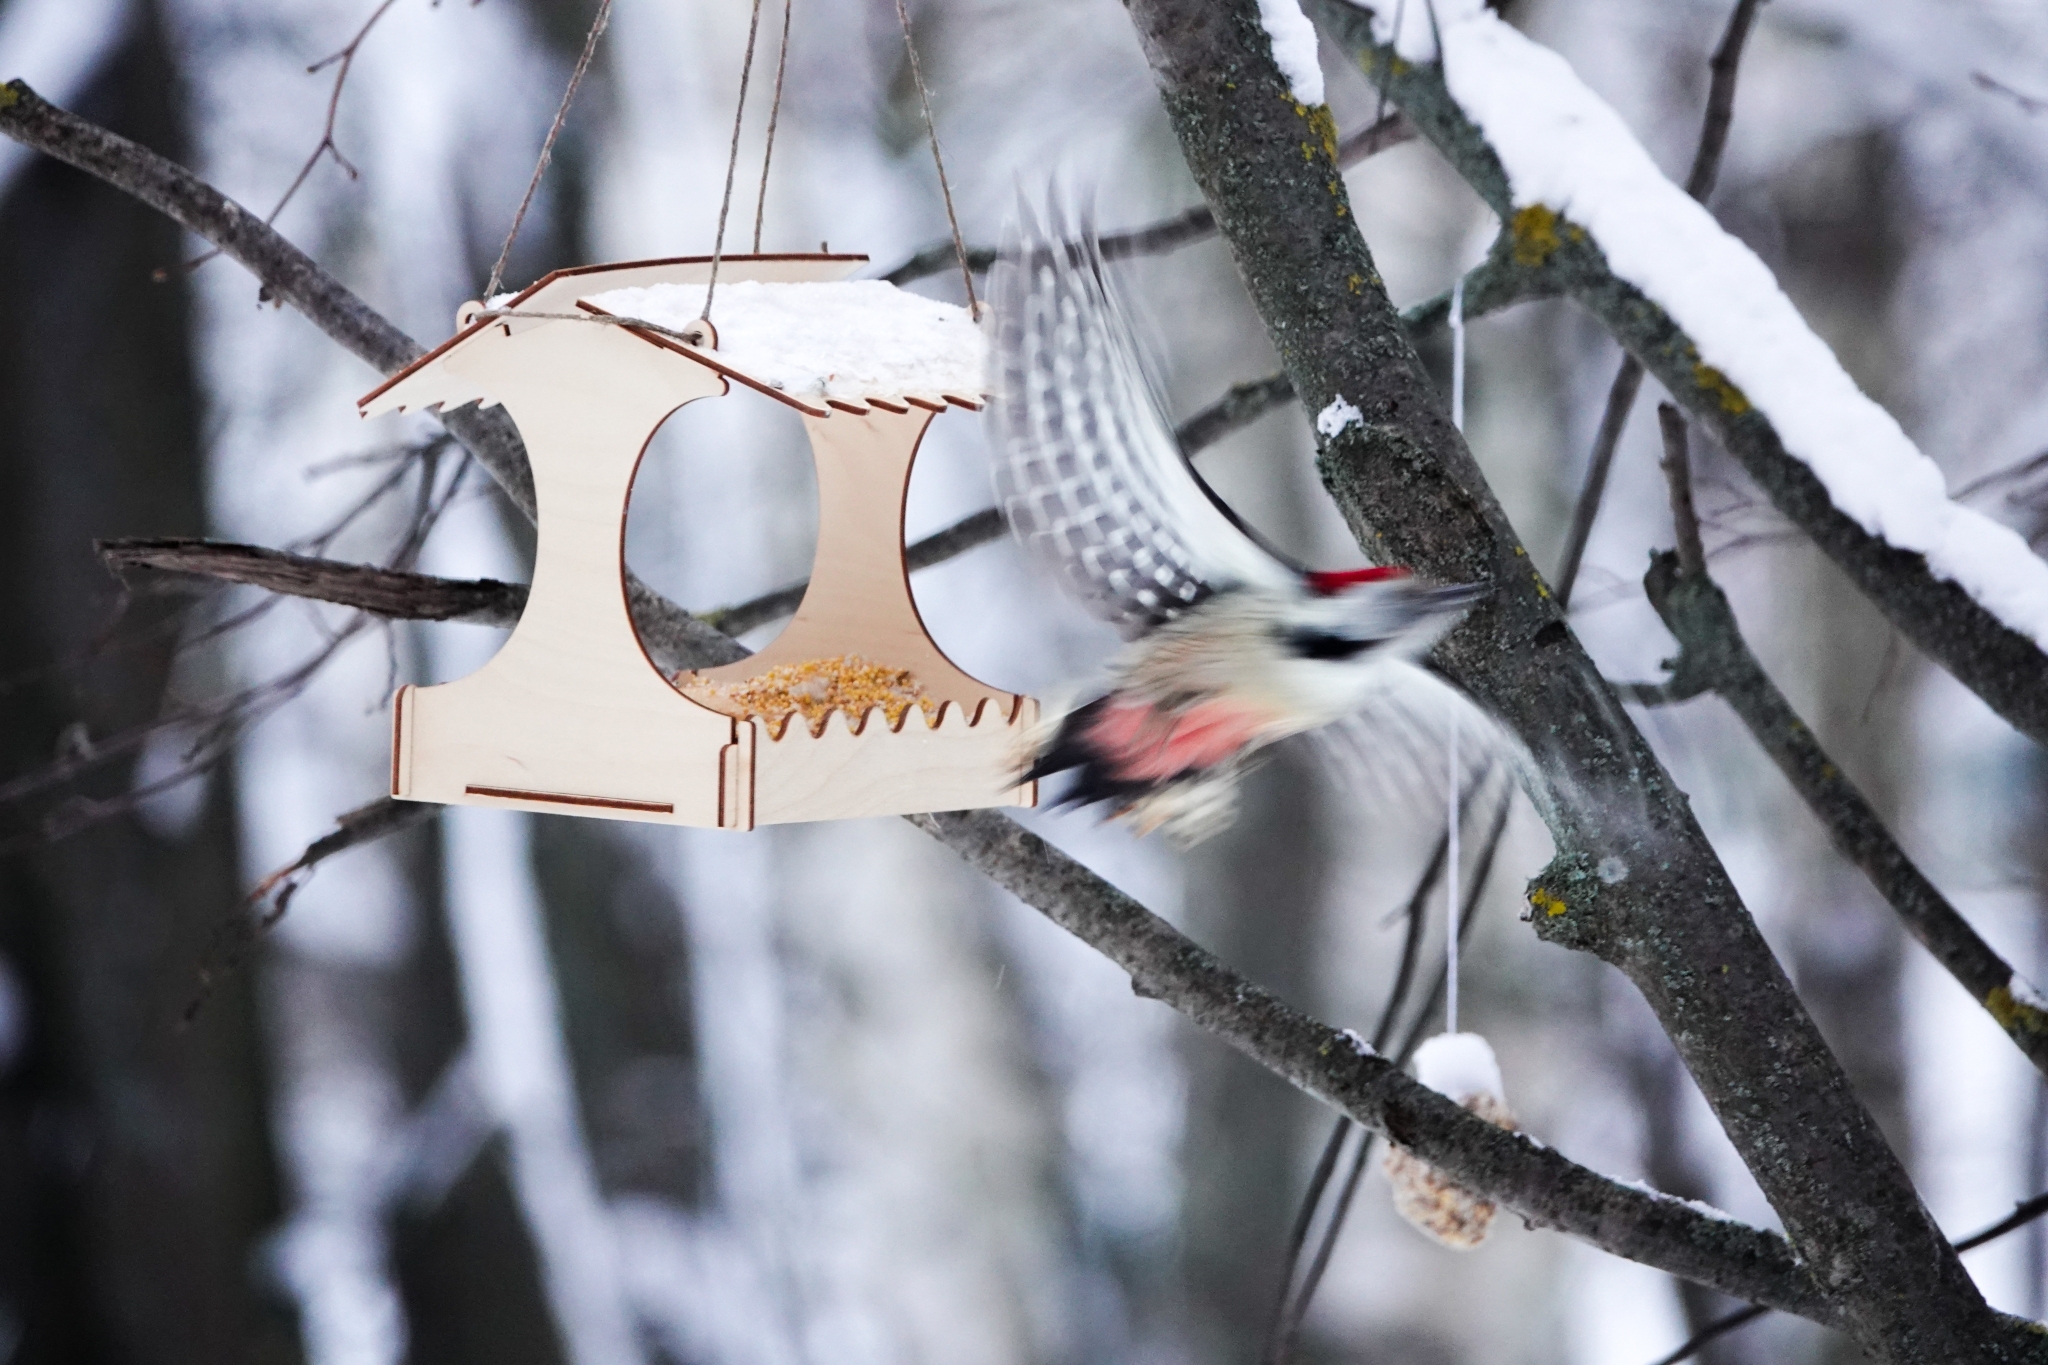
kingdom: Animalia
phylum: Chordata
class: Aves
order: Piciformes
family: Picidae
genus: Dendrocoptes
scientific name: Dendrocoptes medius
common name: Middle spotted woodpecker
